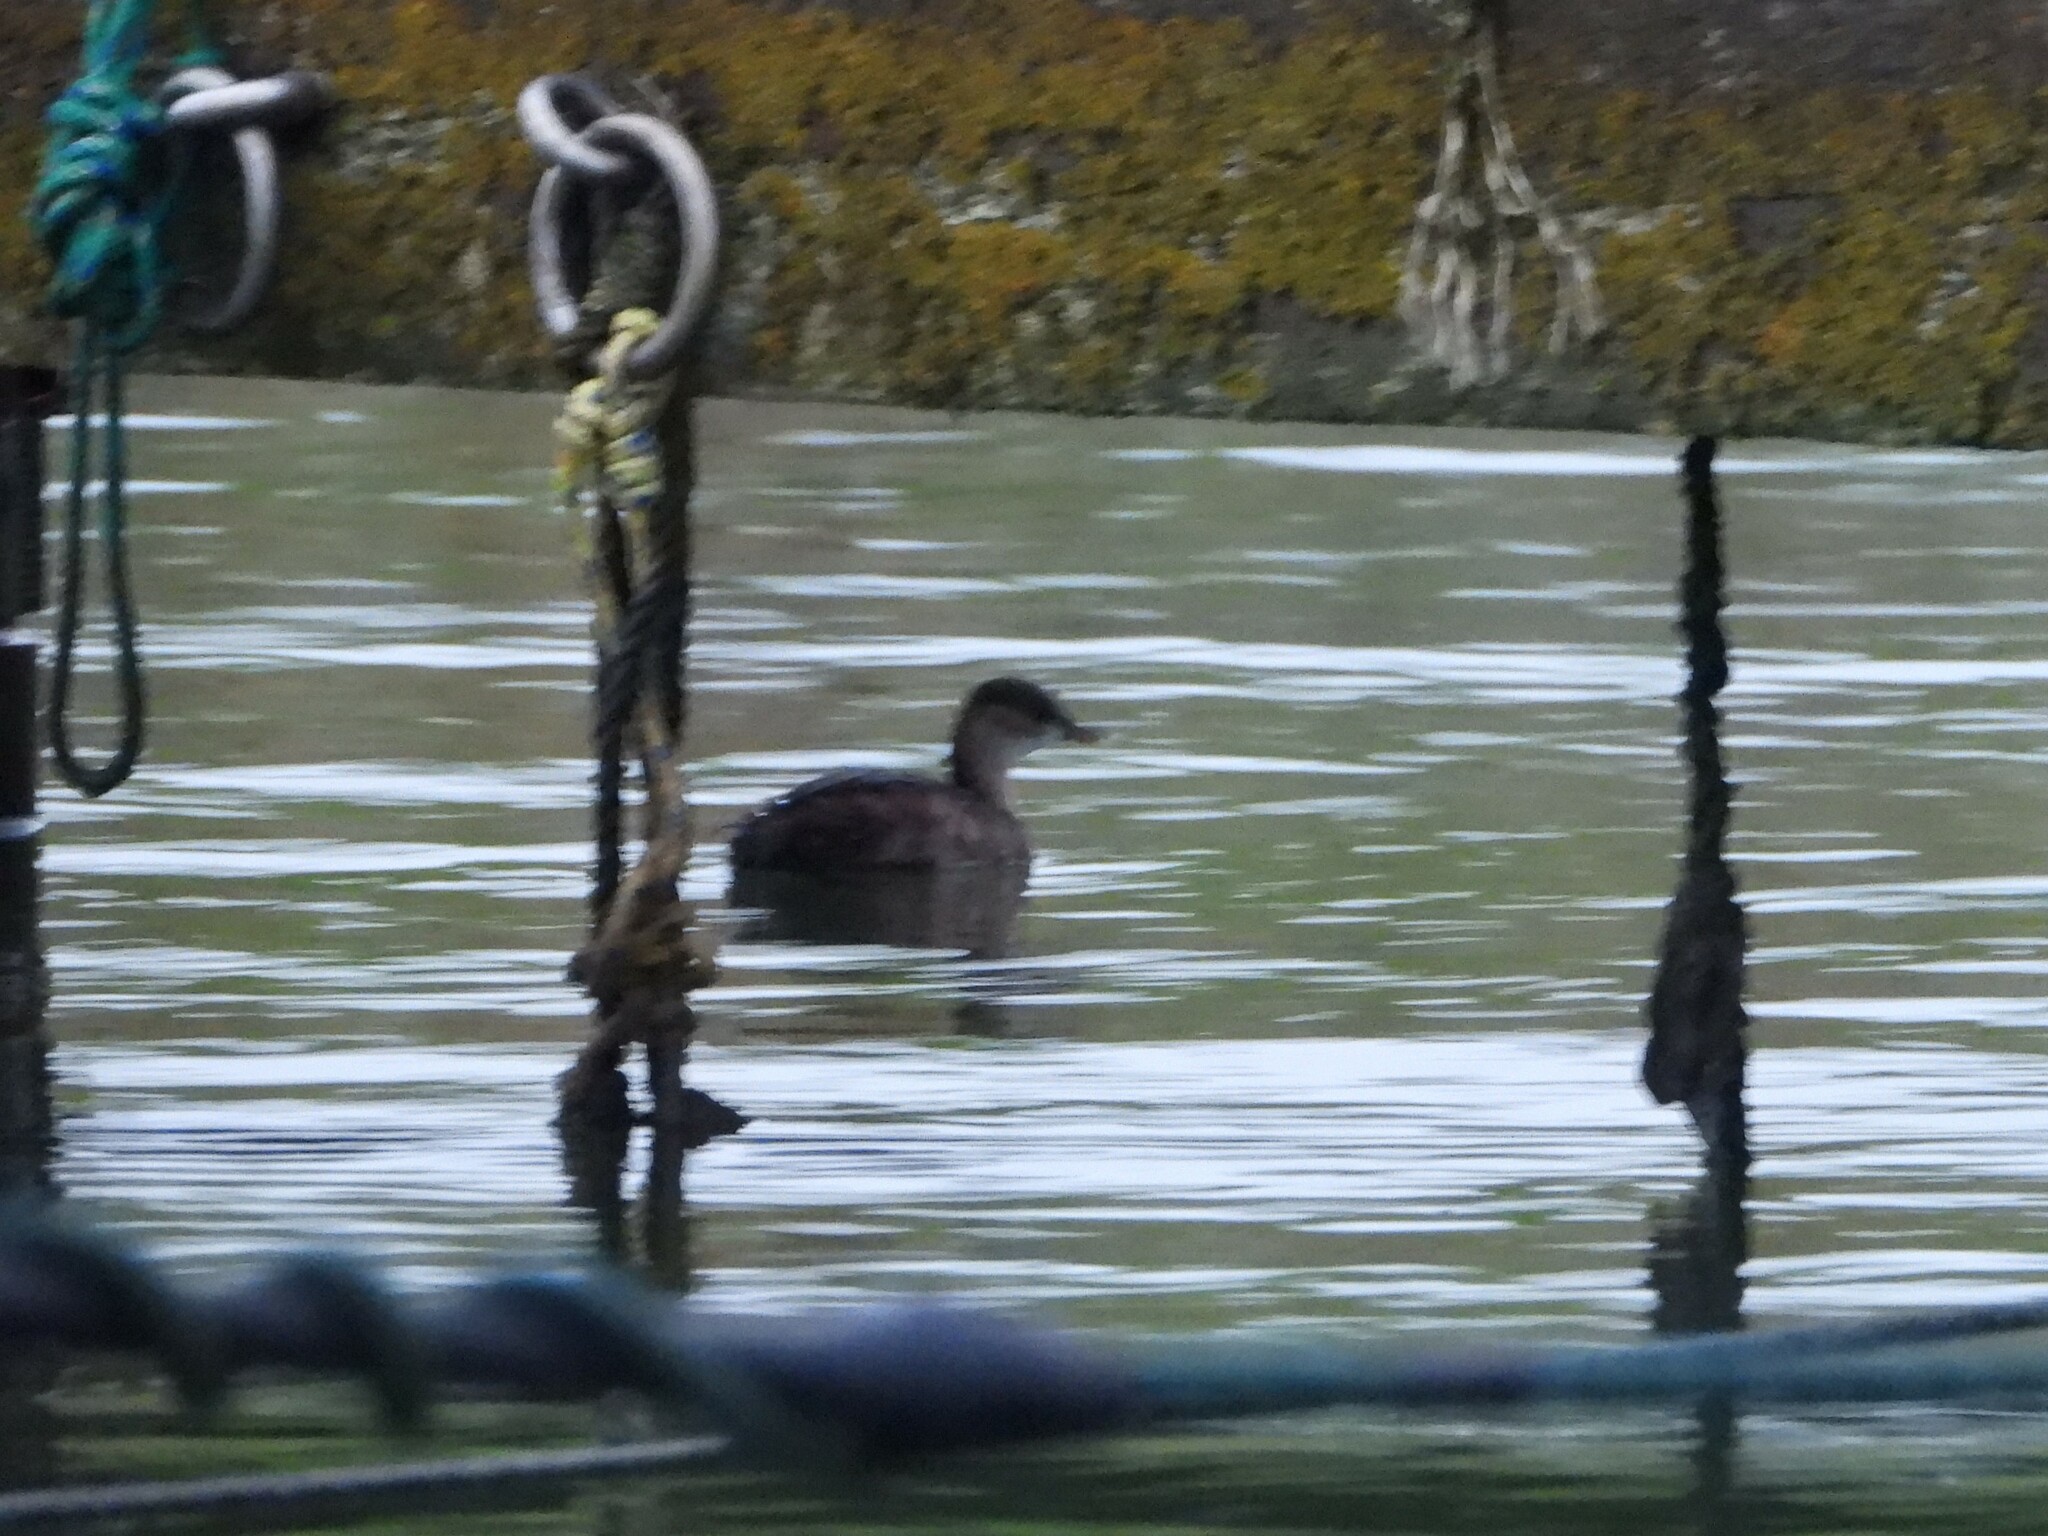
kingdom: Animalia
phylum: Chordata
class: Aves
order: Podicipediformes
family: Podicipedidae
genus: Tachybaptus
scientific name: Tachybaptus ruficollis
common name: Little grebe
